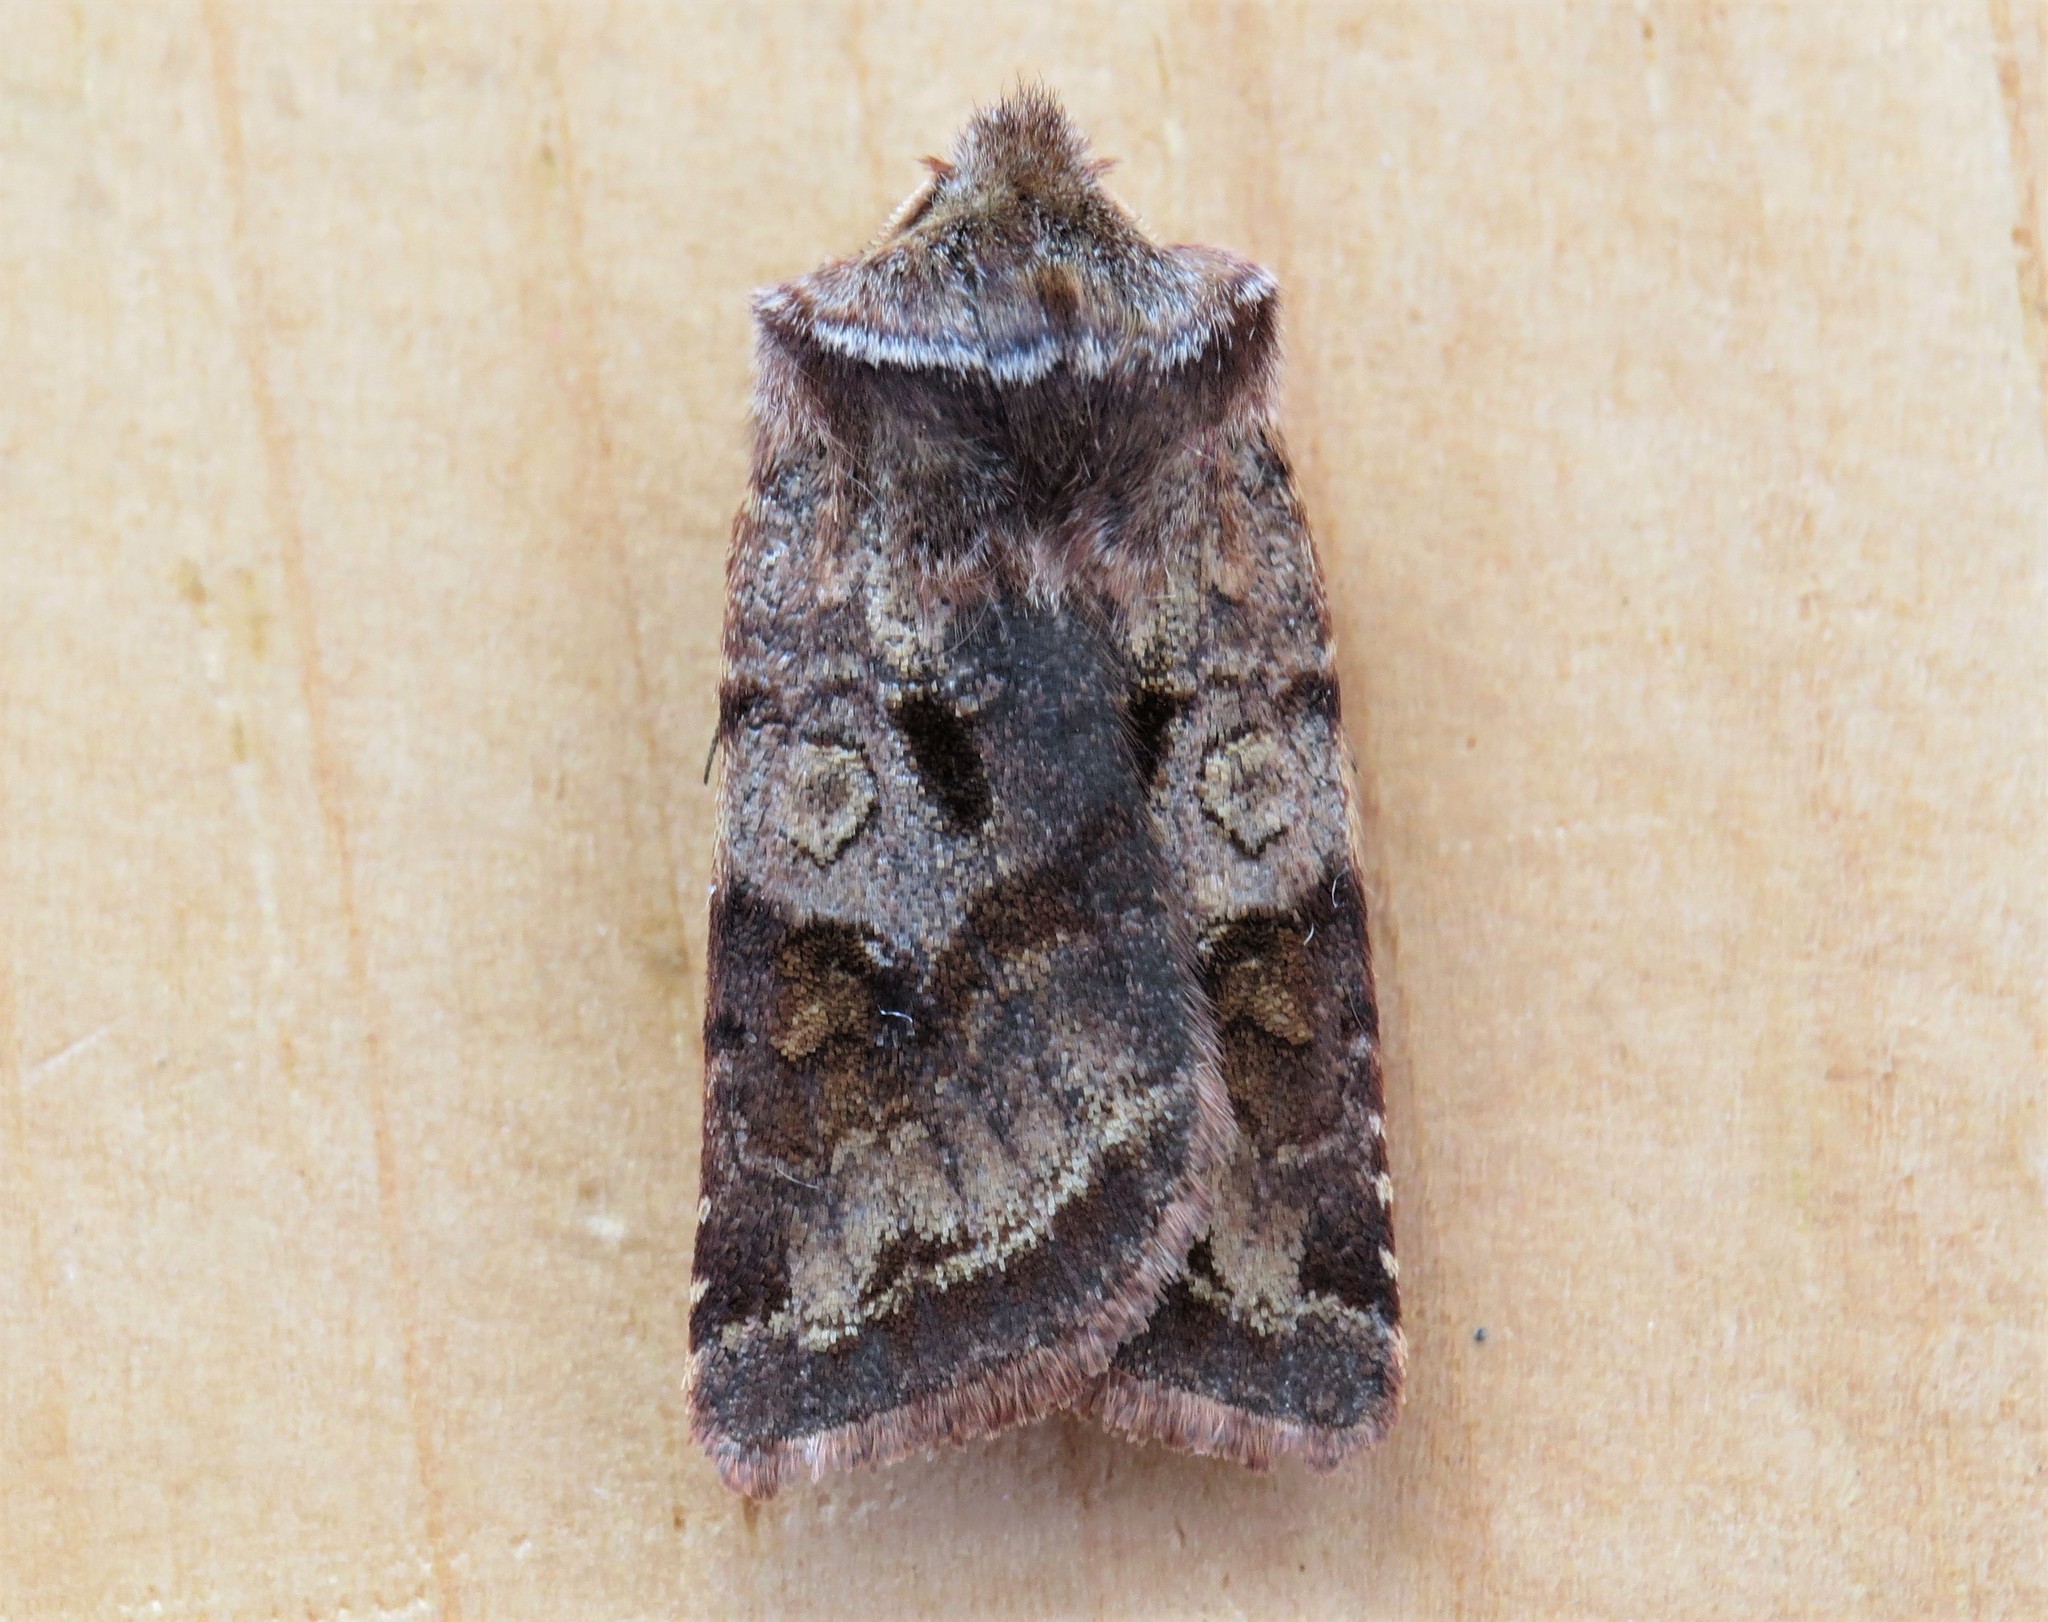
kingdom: Animalia
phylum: Arthropoda
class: Insecta
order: Lepidoptera
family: Noctuidae
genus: Cerastis
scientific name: Cerastis salicarum
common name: Willow dart
